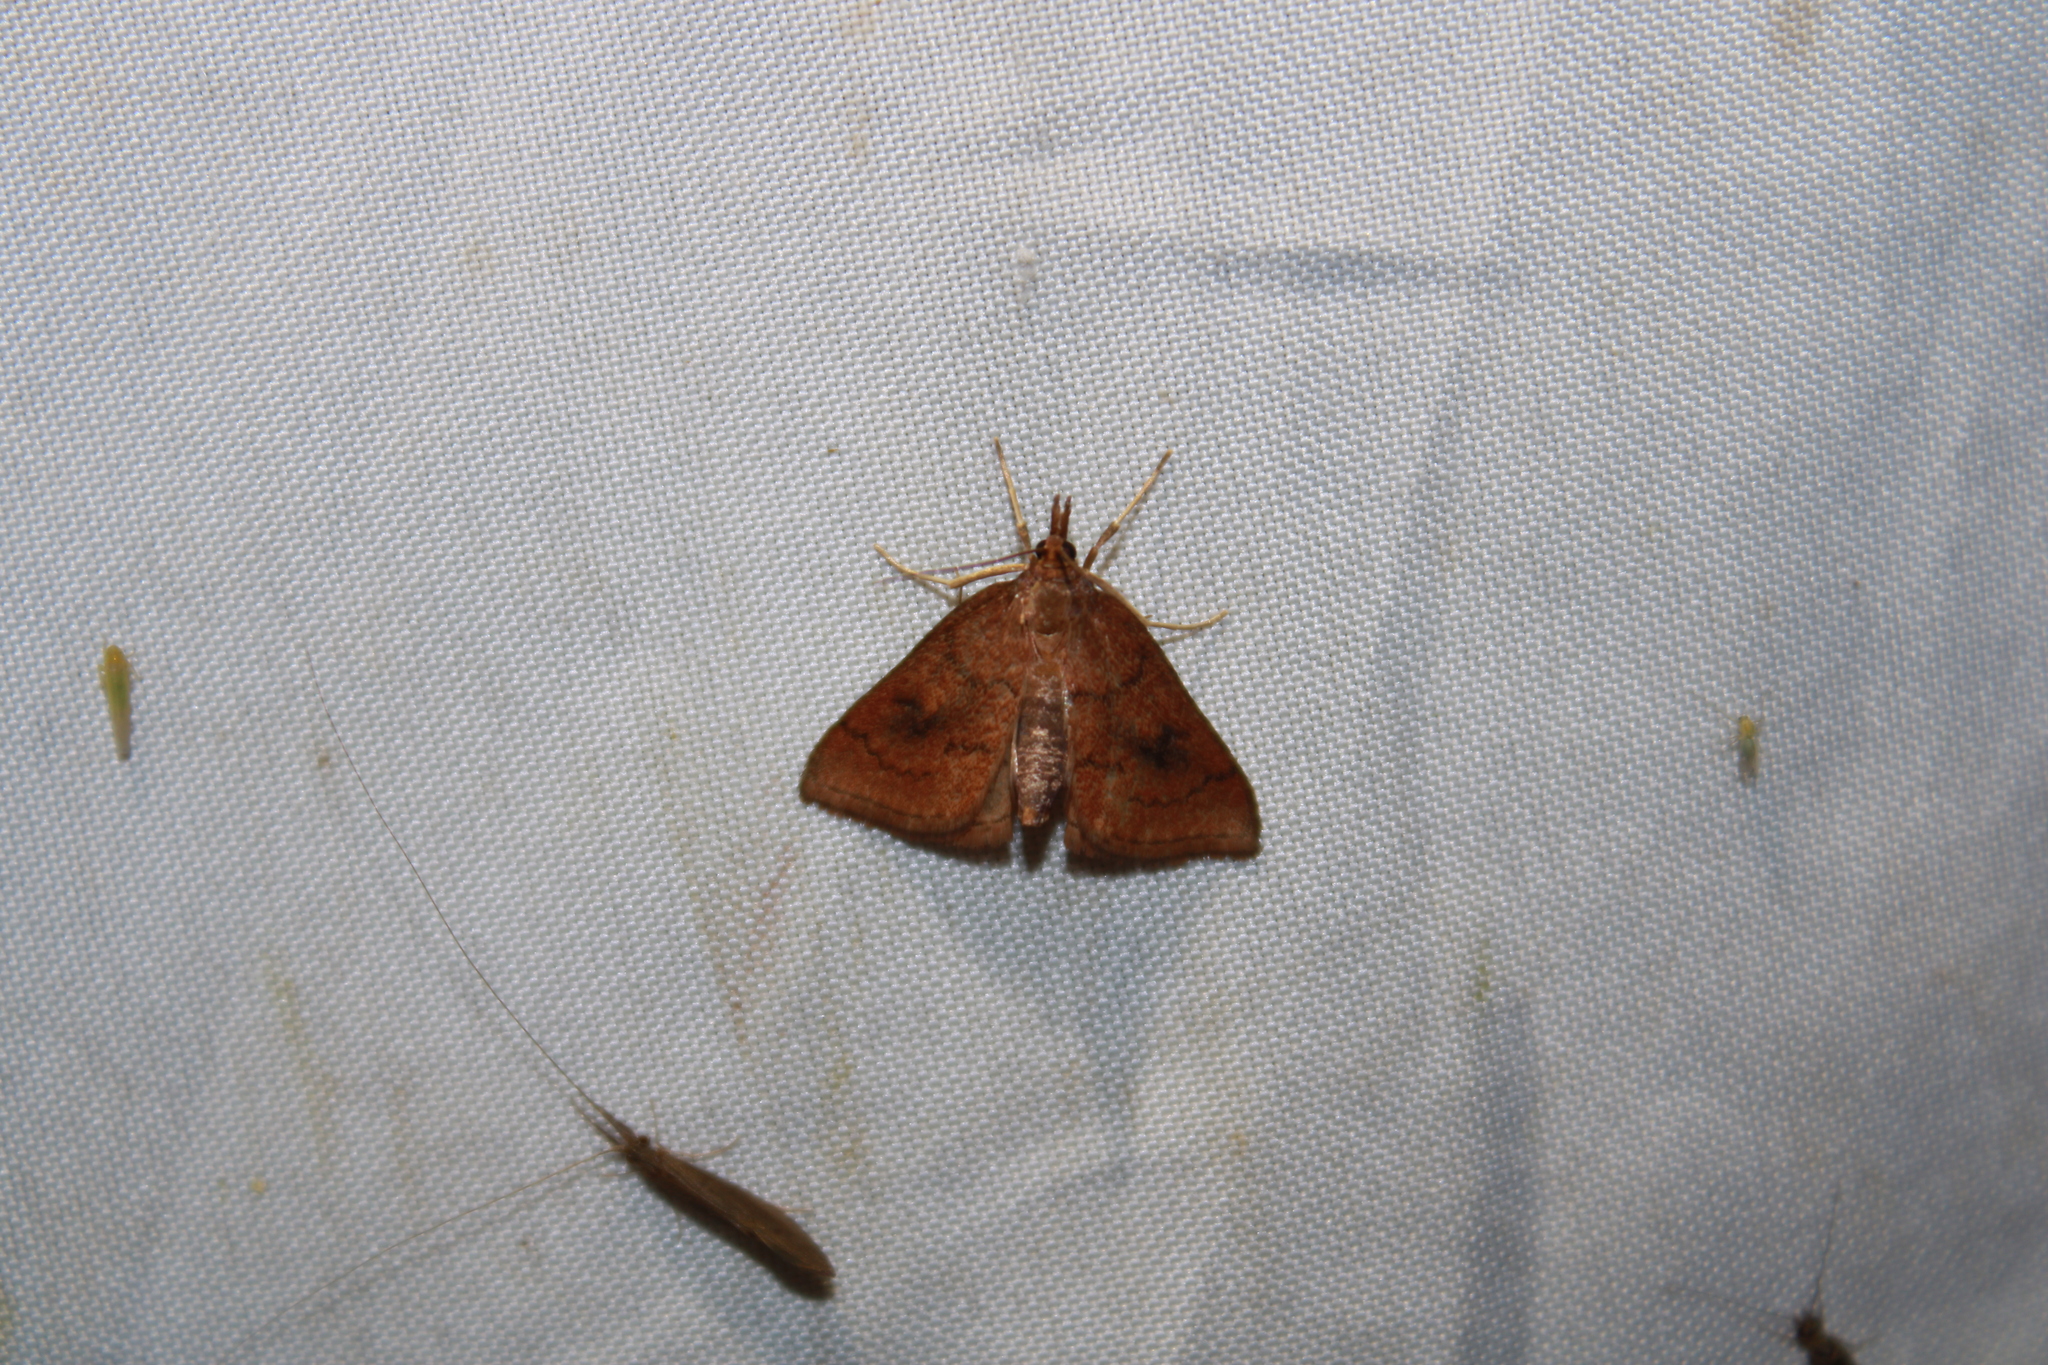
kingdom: Animalia
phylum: Arthropoda
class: Insecta
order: Lepidoptera
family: Crambidae
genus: Fumibotys
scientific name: Fumibotys fumalis
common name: Mint root borer moth
